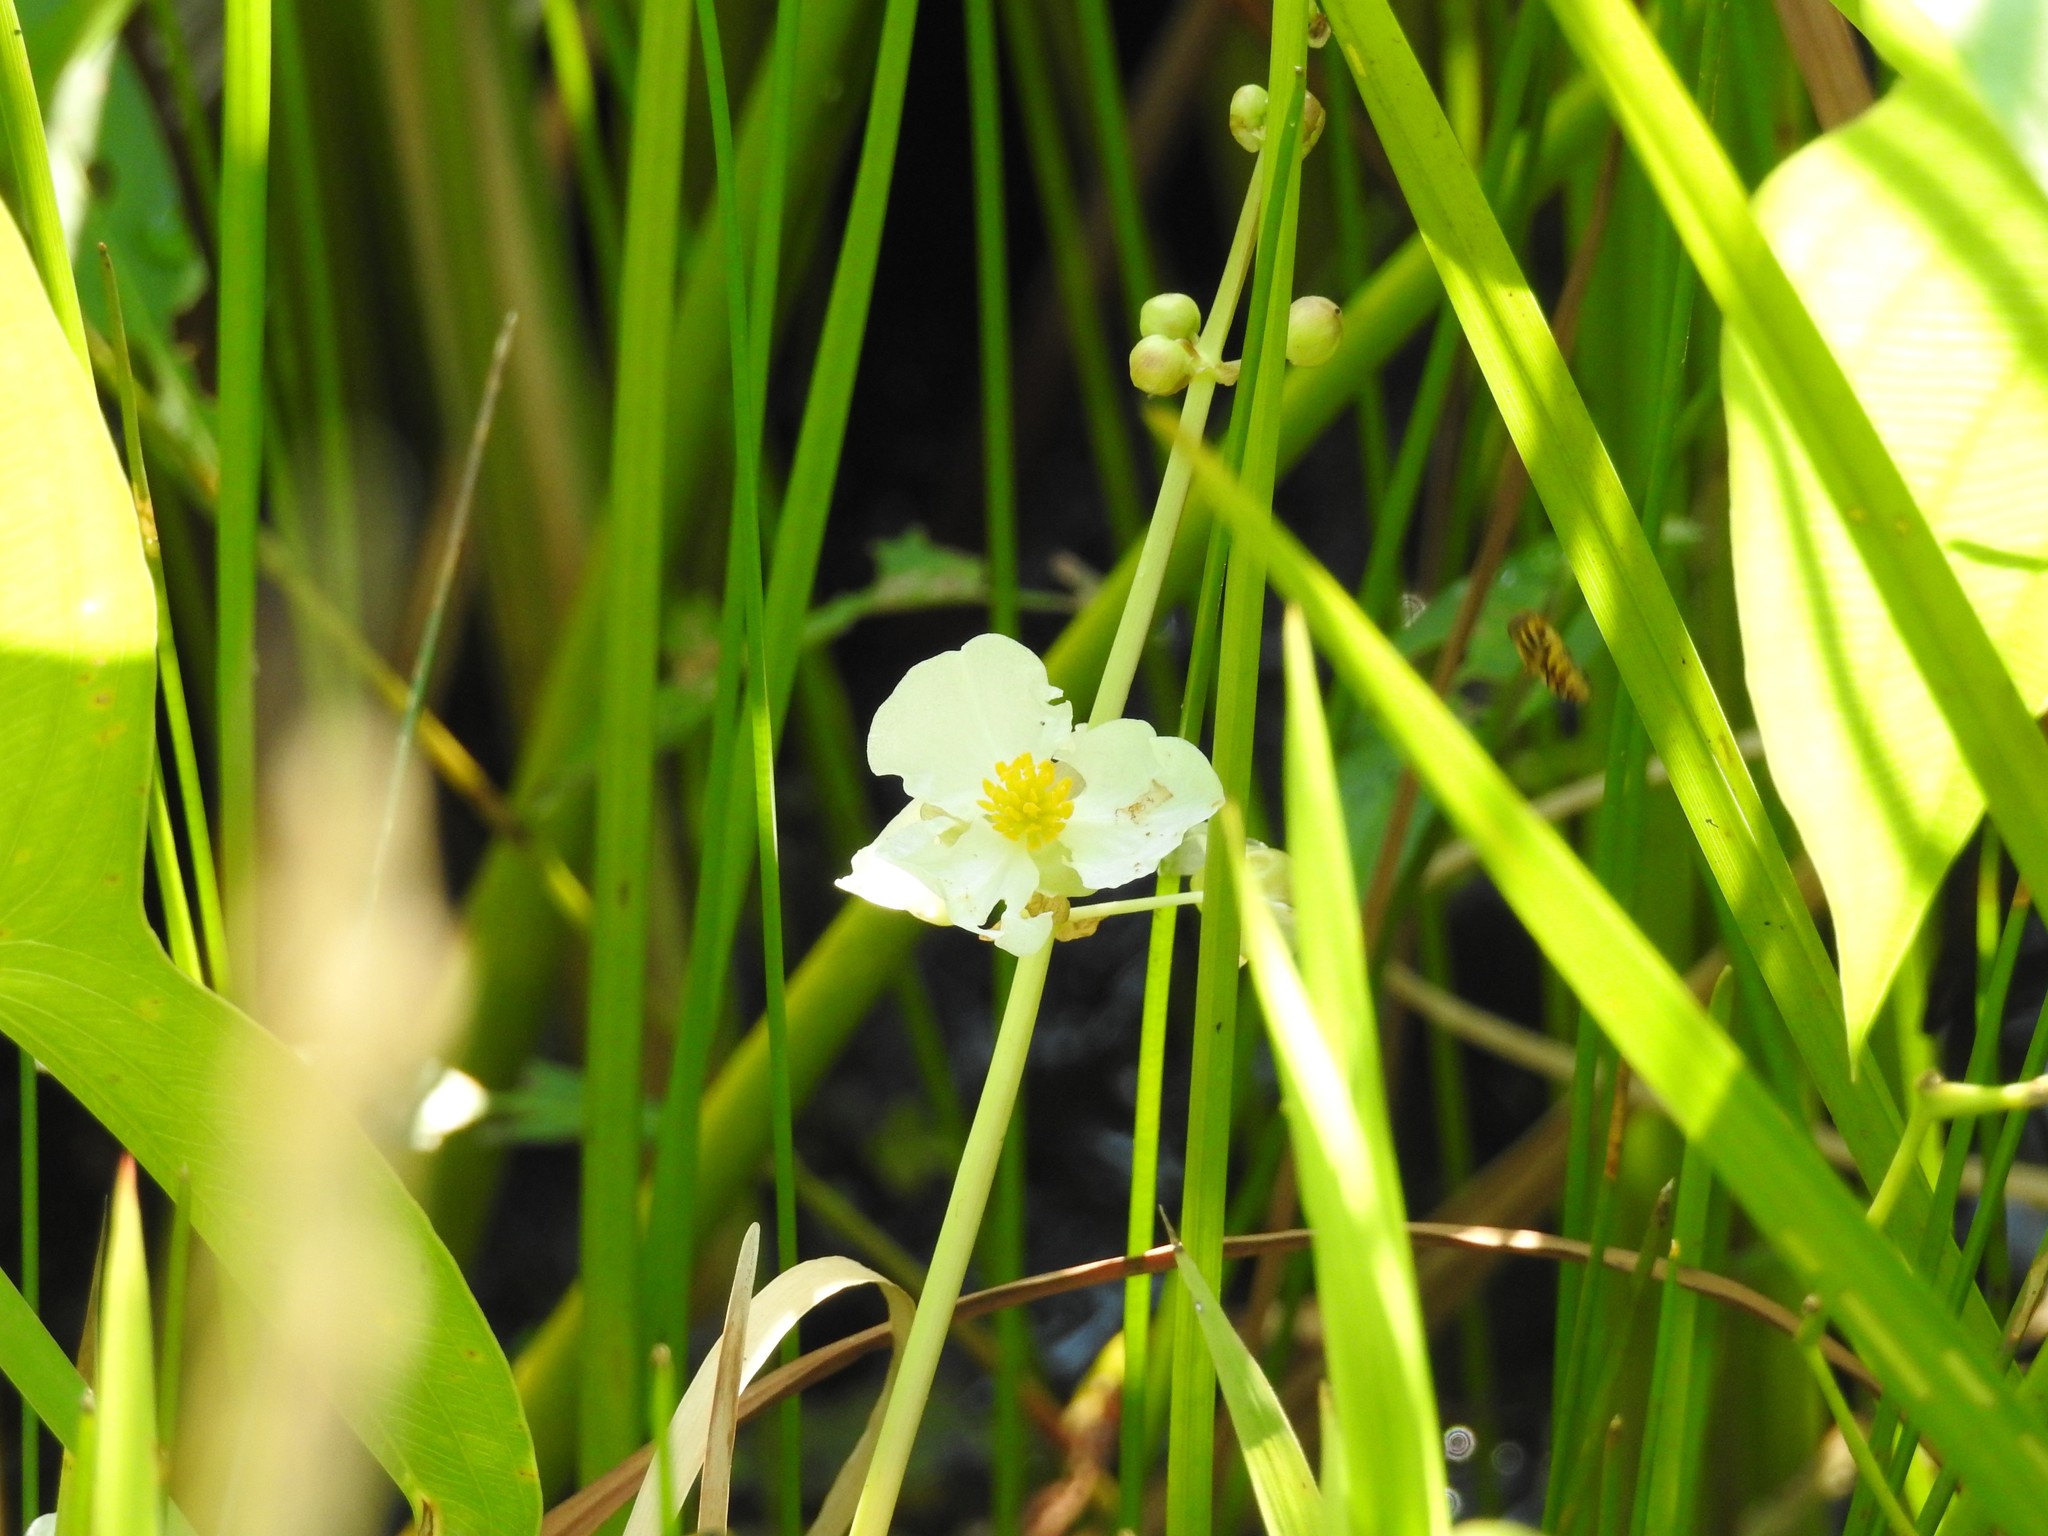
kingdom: Plantae
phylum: Tracheophyta
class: Liliopsida
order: Alismatales
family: Alismataceae
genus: Sagittaria
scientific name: Sagittaria latifolia
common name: Duck-potato
